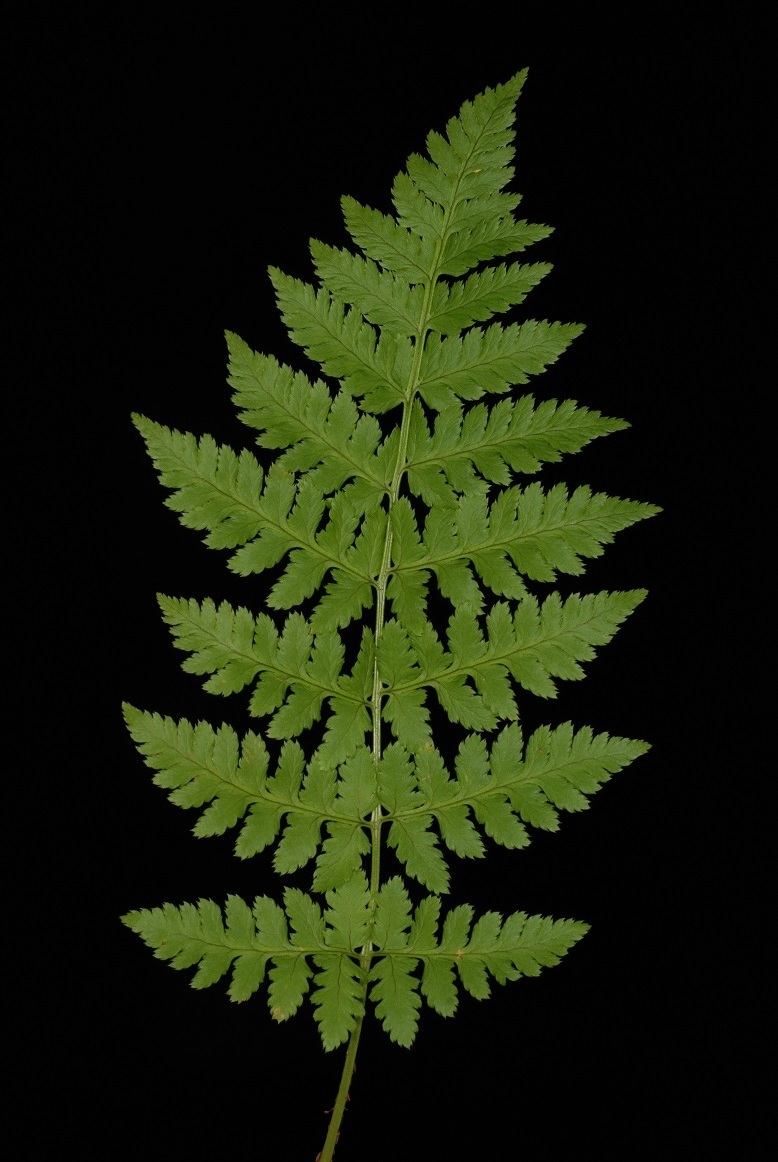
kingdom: Plantae
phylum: Tracheophyta
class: Polypodiopsida
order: Polypodiales
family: Dryopteridaceae
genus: Dryopteris
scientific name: Dryopteris carthusiana
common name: Narrow buckler-fern
